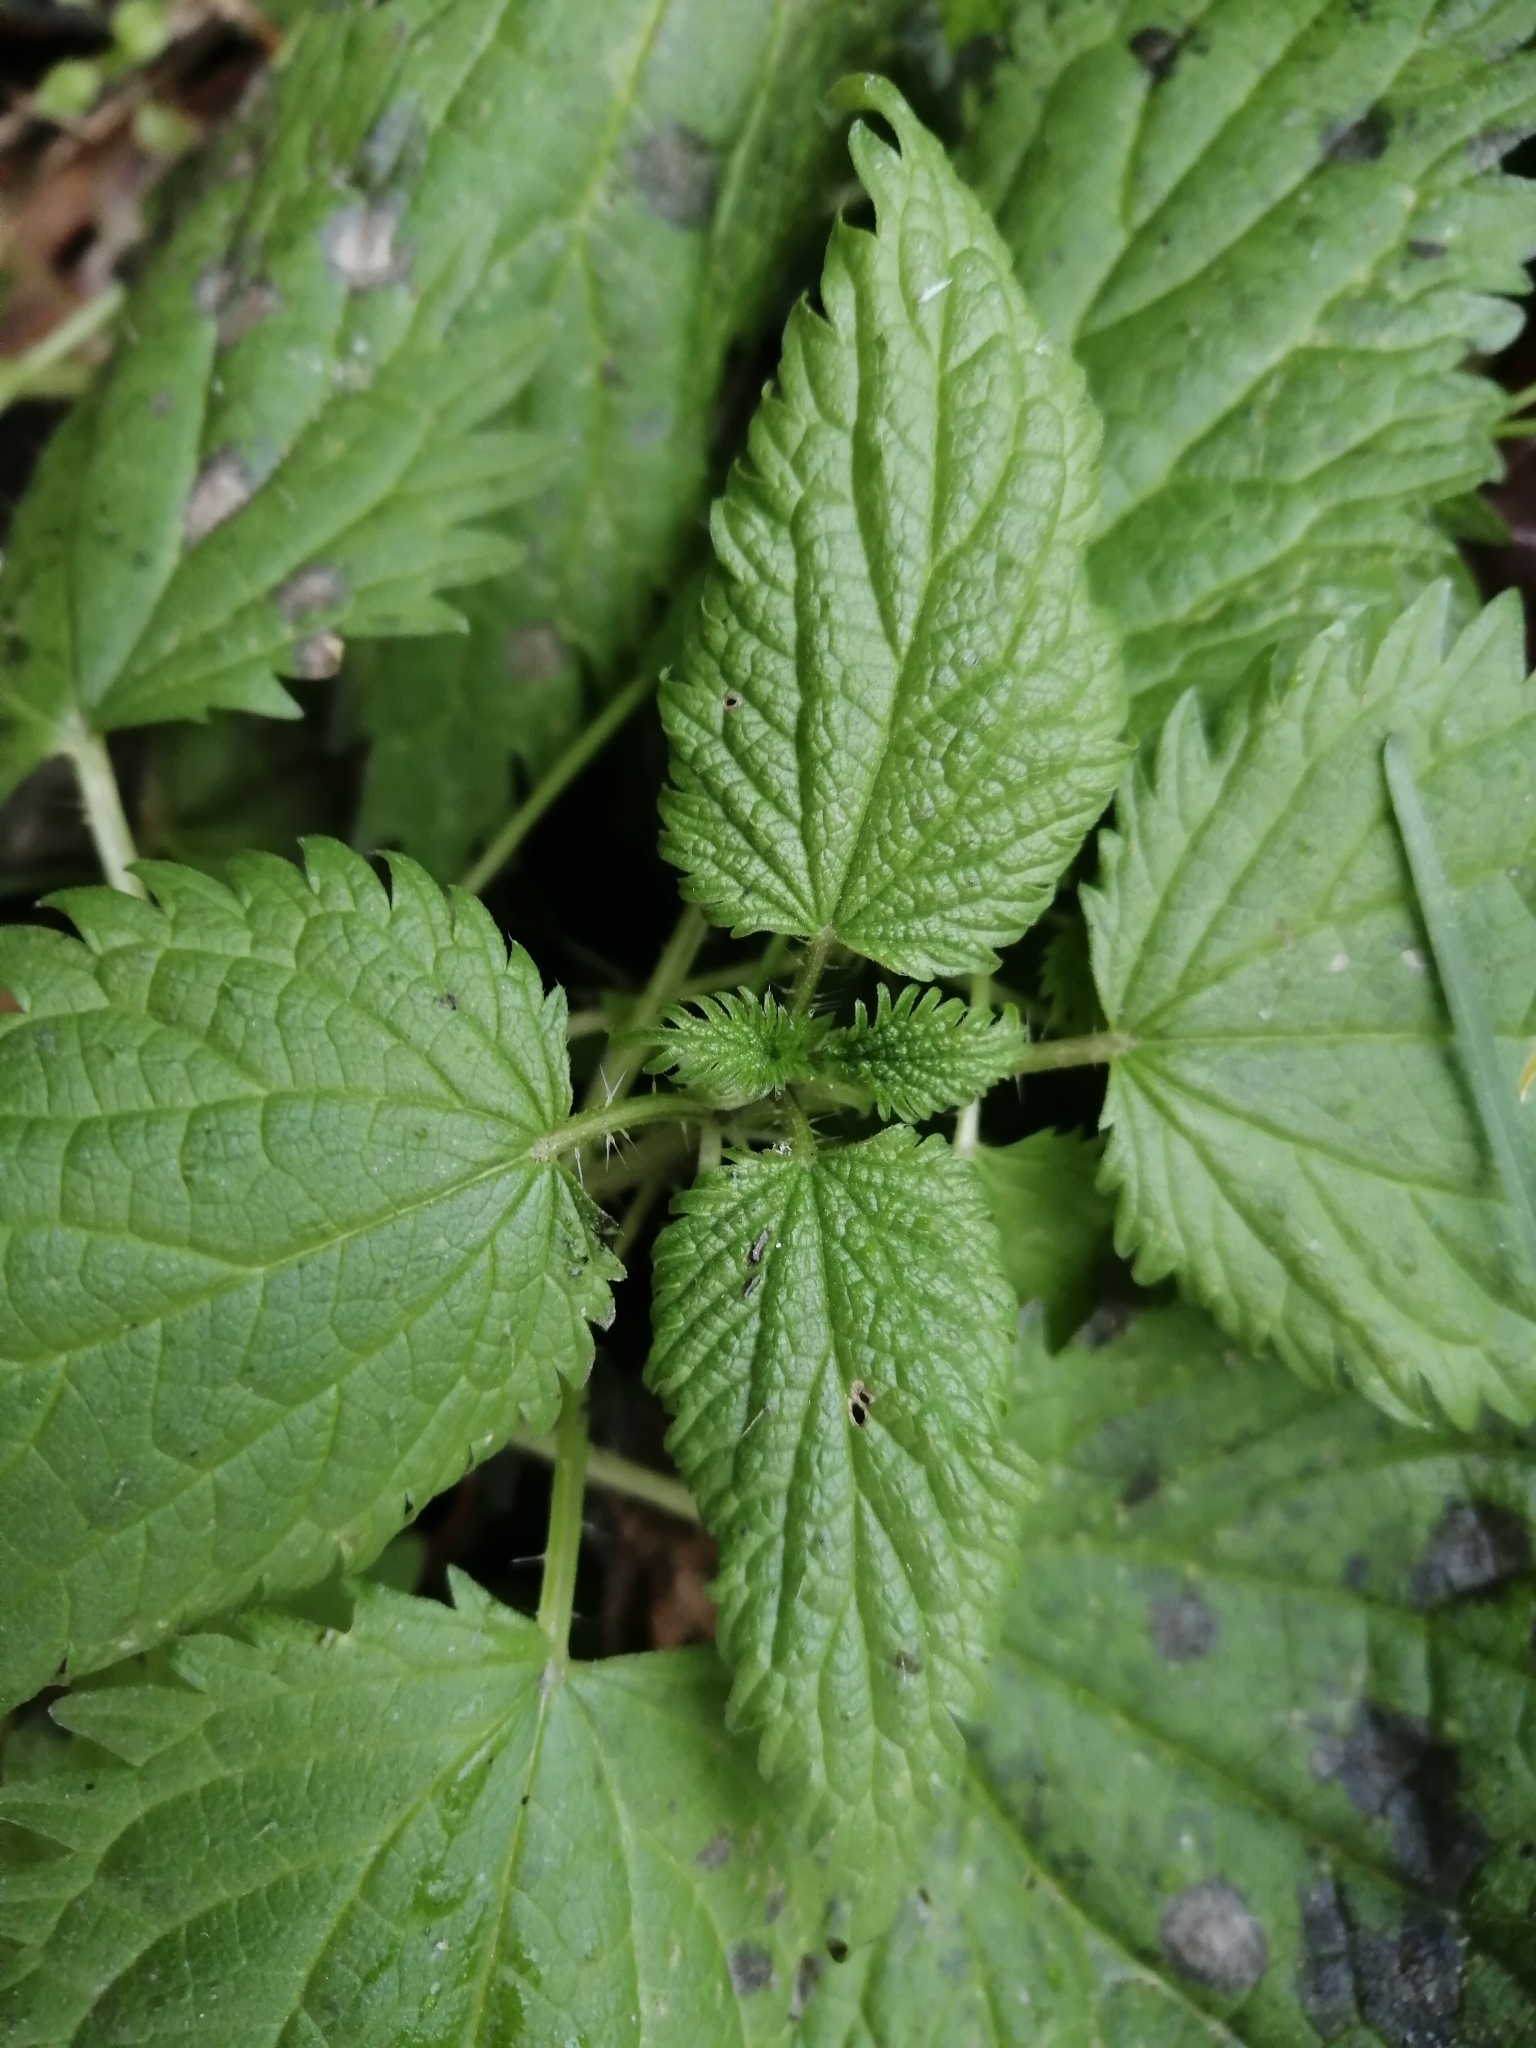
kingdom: Plantae
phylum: Tracheophyta
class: Magnoliopsida
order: Rosales
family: Urticaceae
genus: Urtica
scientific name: Urtica dioica
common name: Common nettle
